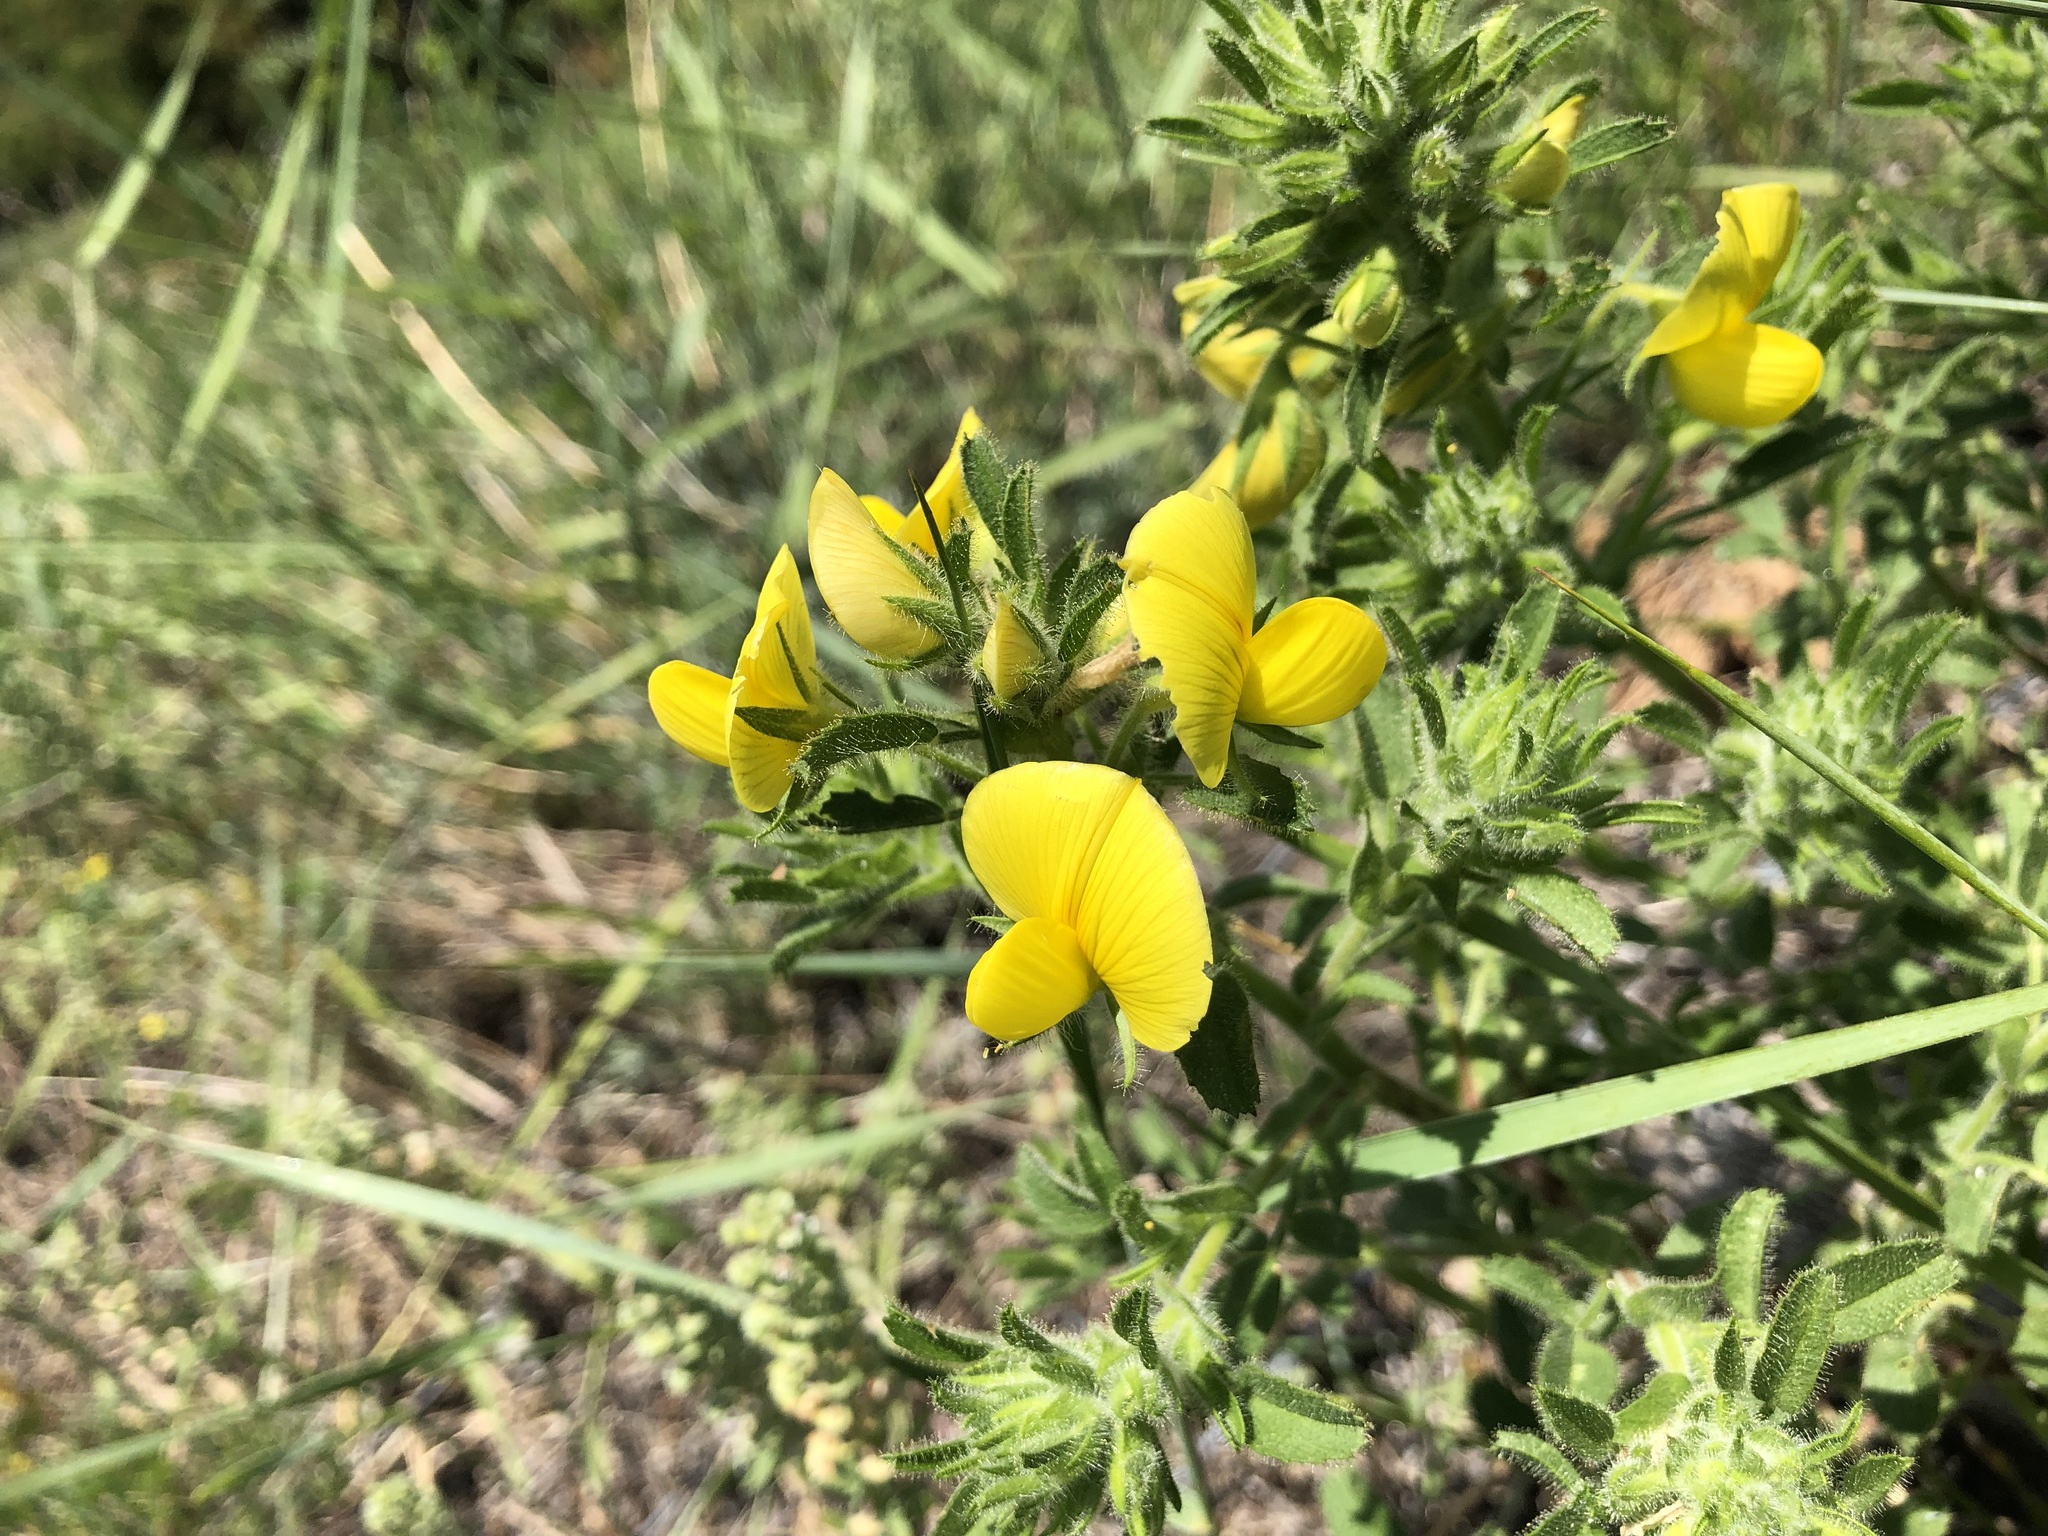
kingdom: Plantae
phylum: Tracheophyta
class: Magnoliopsida
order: Fabales
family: Fabaceae
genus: Ononis
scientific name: Ononis natrix
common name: Yellow restharrow
